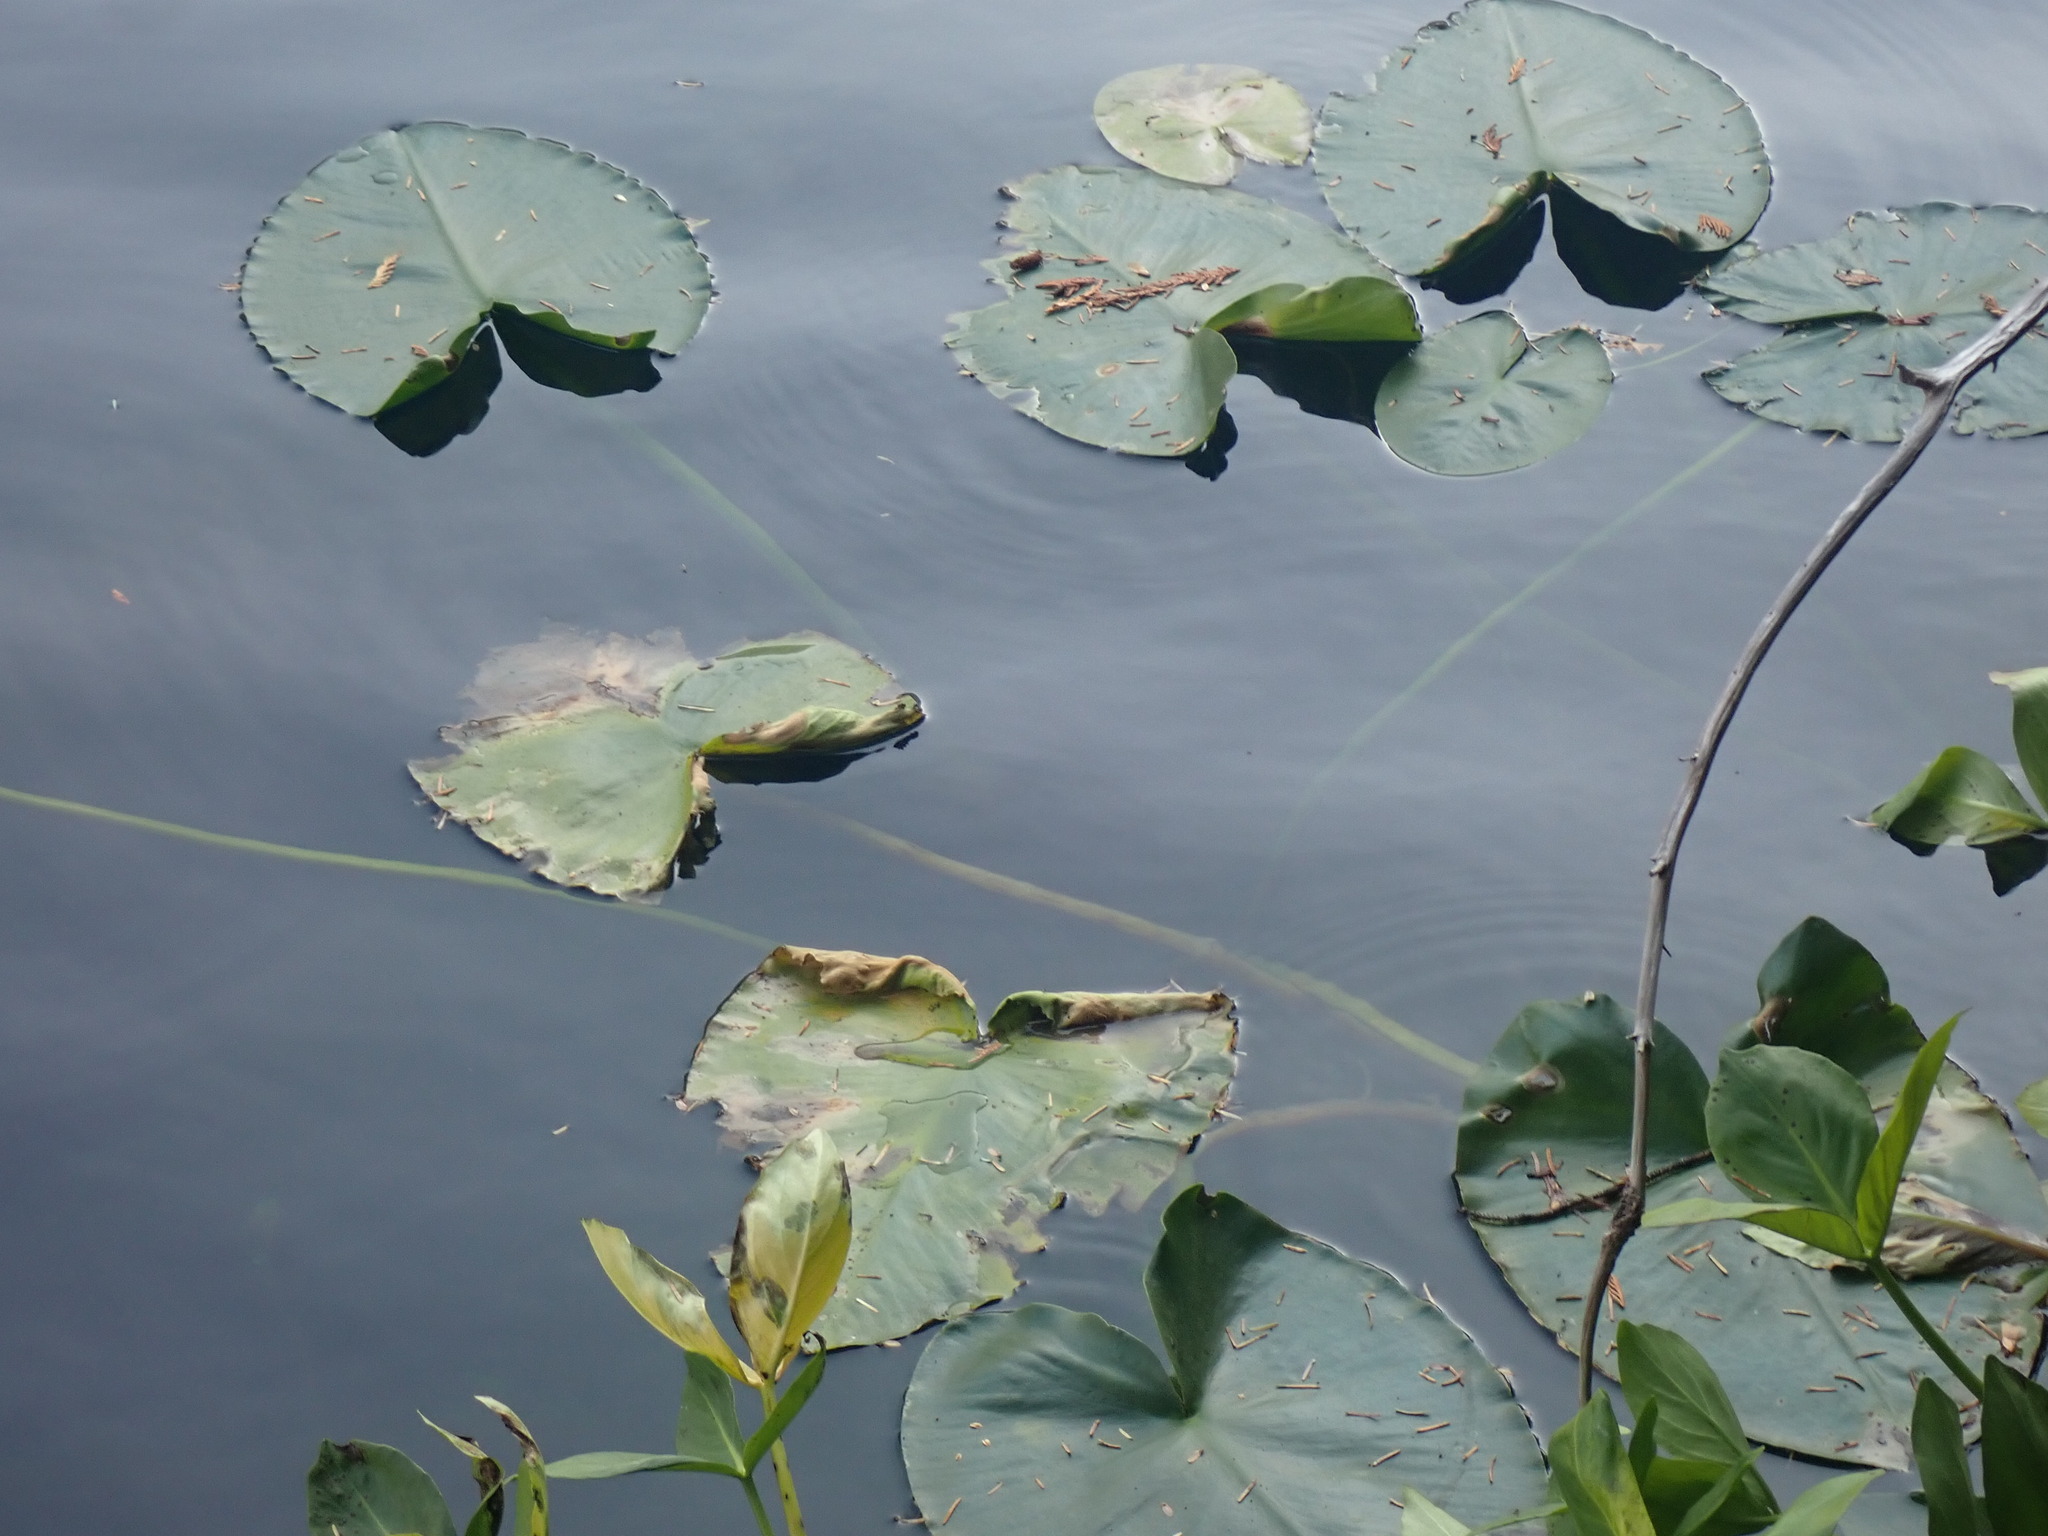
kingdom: Plantae
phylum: Tracheophyta
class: Magnoliopsida
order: Nymphaeales
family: Nymphaeaceae
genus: Nuphar
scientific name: Nuphar polysepala
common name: Rocky mountain cow-lily
